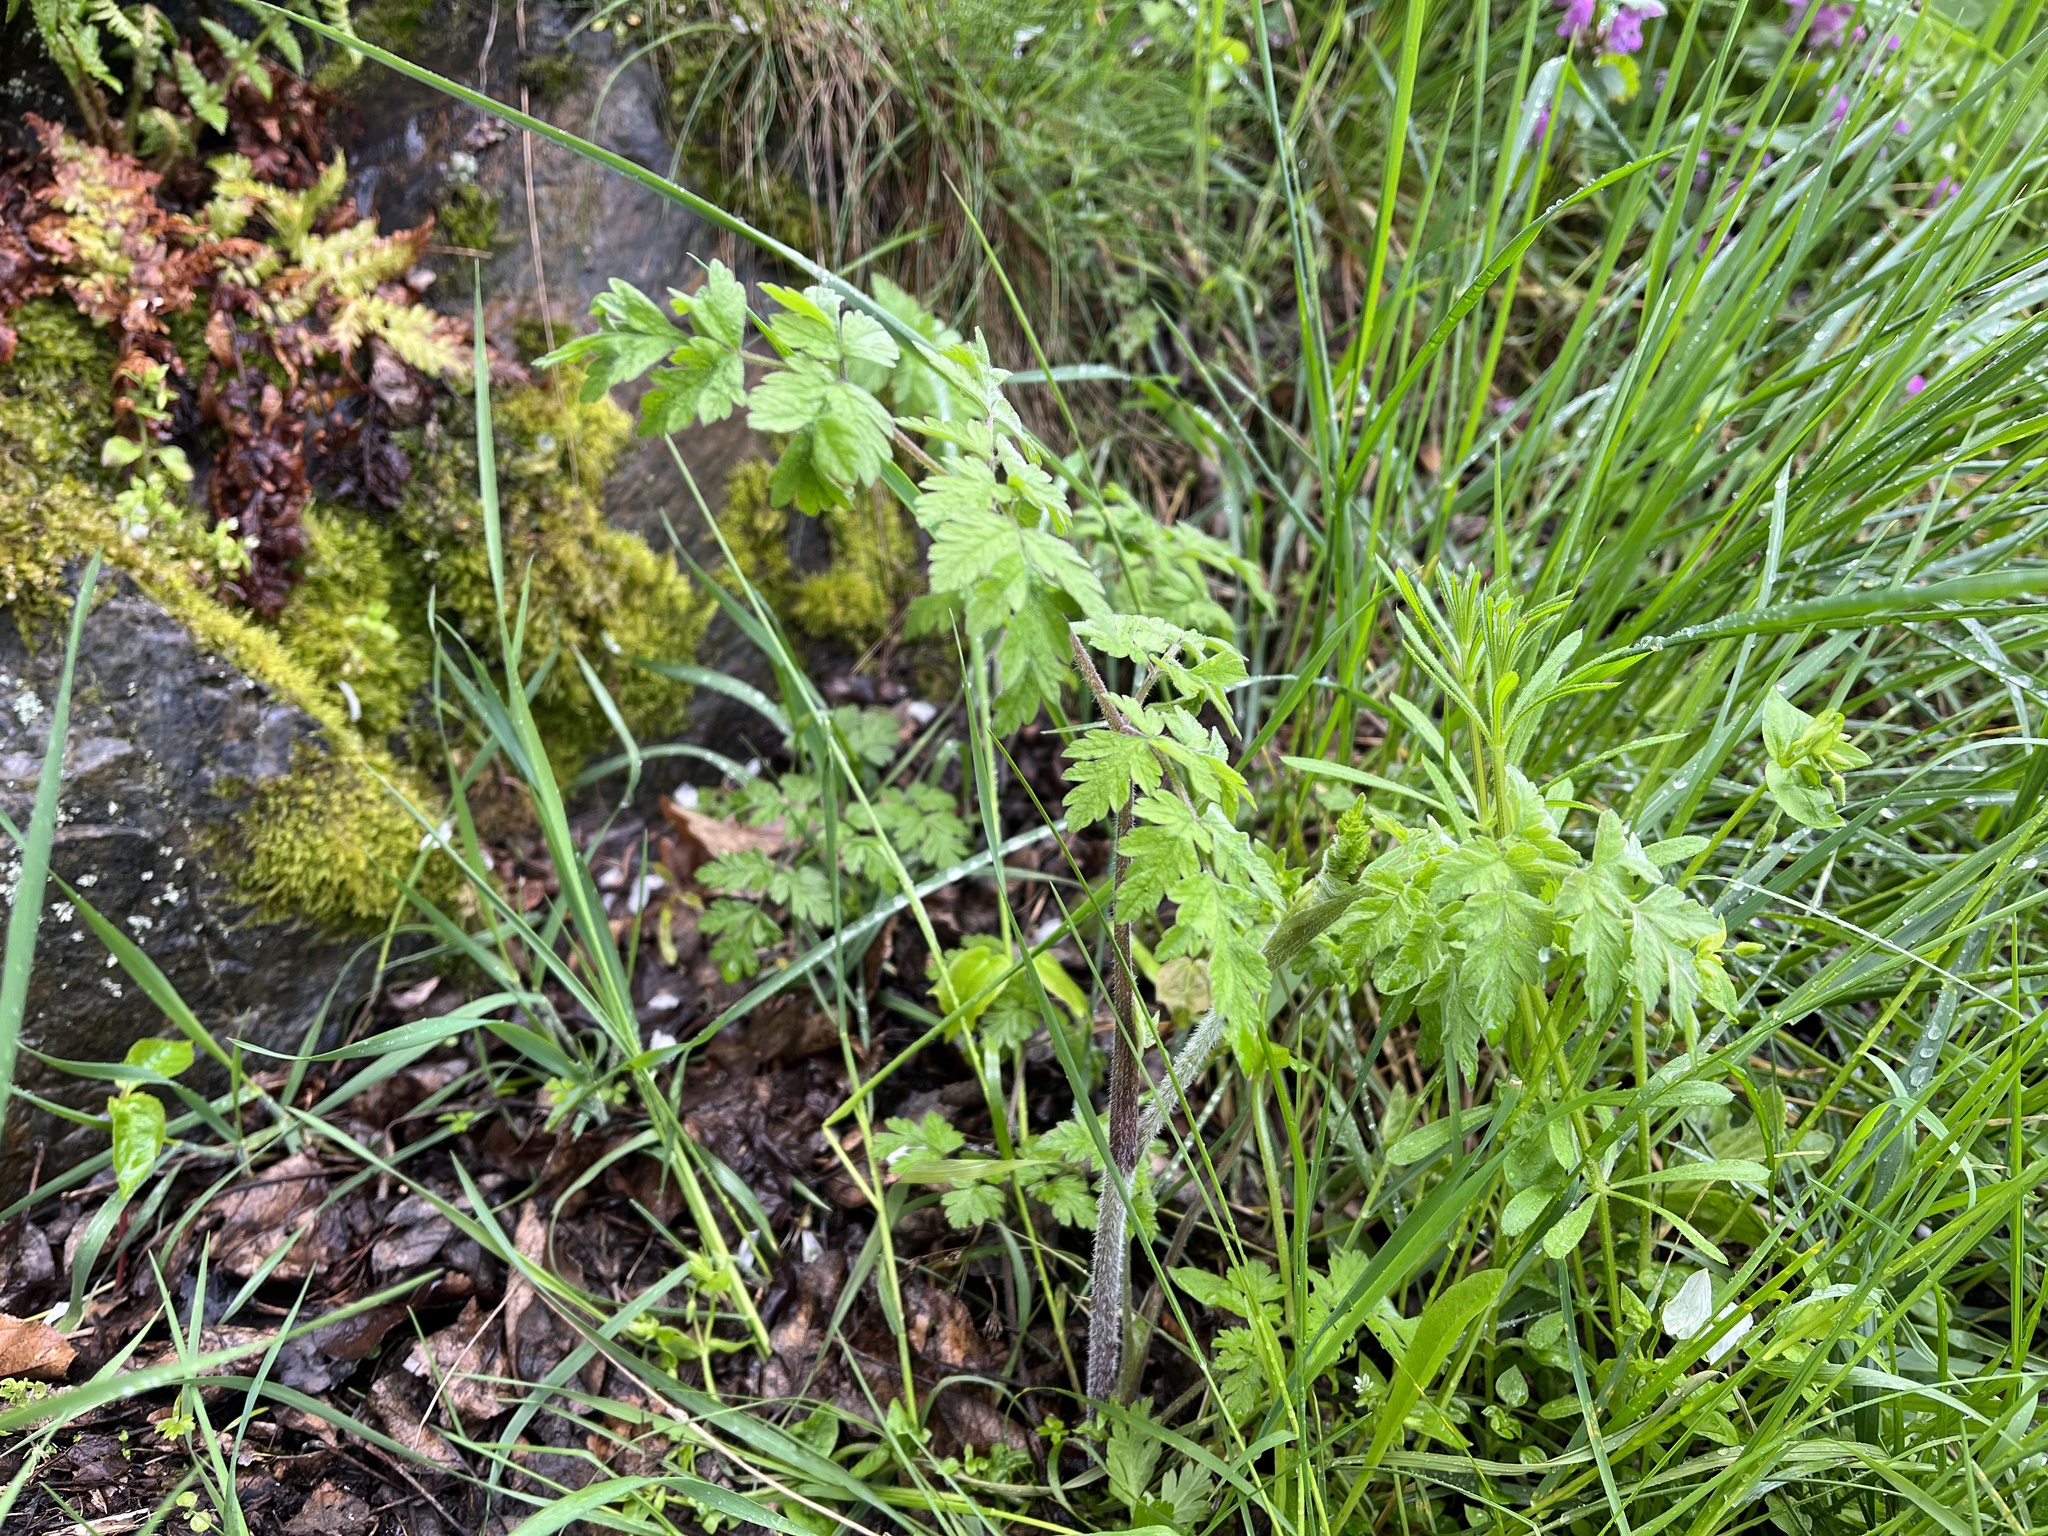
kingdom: Plantae
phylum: Tracheophyta
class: Magnoliopsida
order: Apiales
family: Apiaceae
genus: Chaerophyllum
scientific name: Chaerophyllum temulum
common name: Rough chervil
